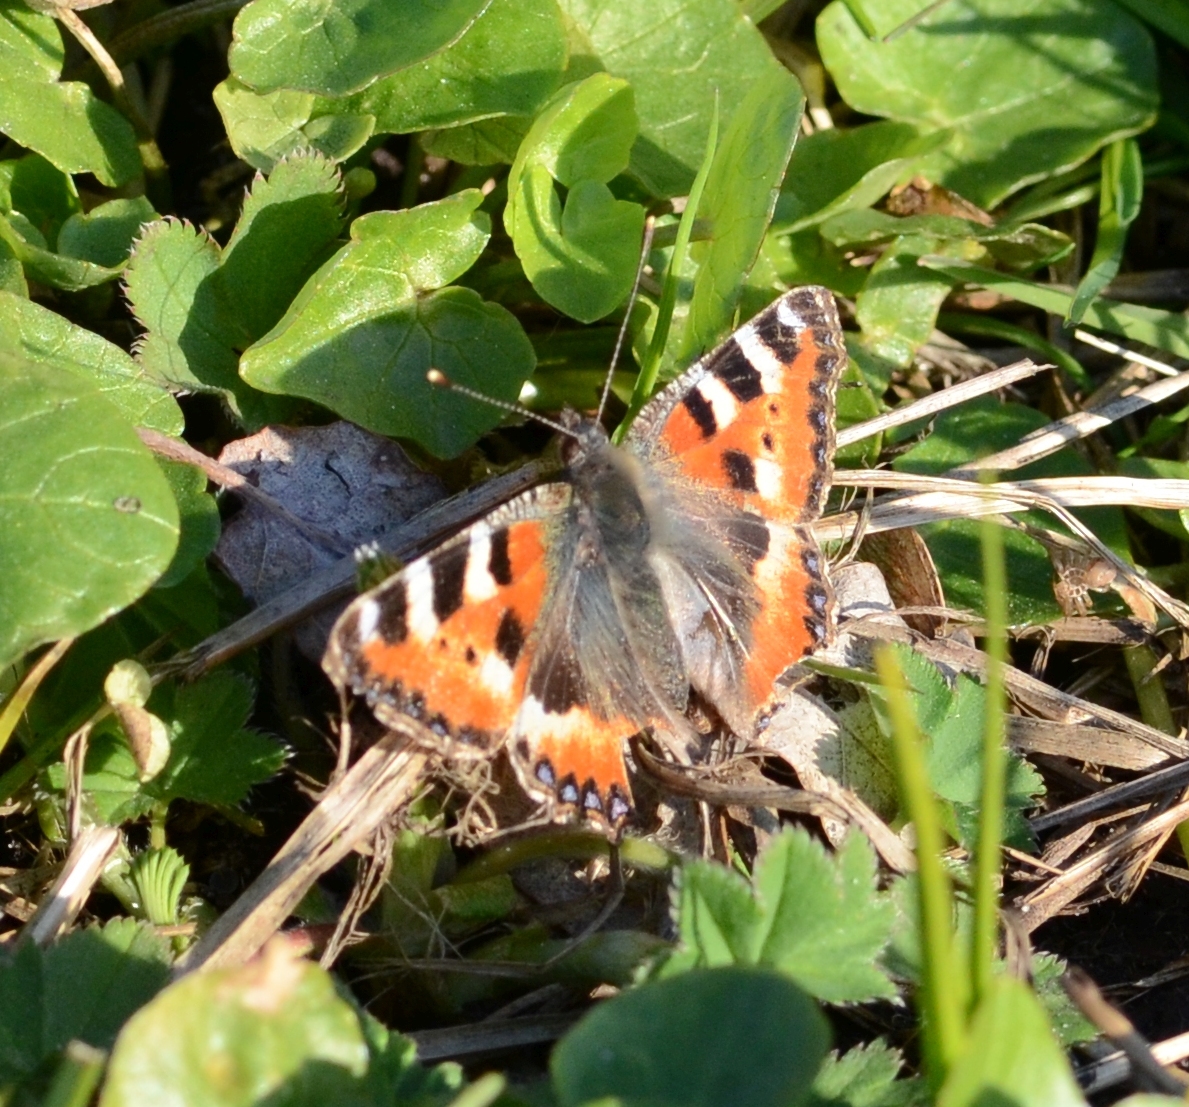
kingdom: Animalia
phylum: Arthropoda
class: Insecta
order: Lepidoptera
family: Nymphalidae
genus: Aglais
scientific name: Aglais urticae
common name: Small tortoiseshell
